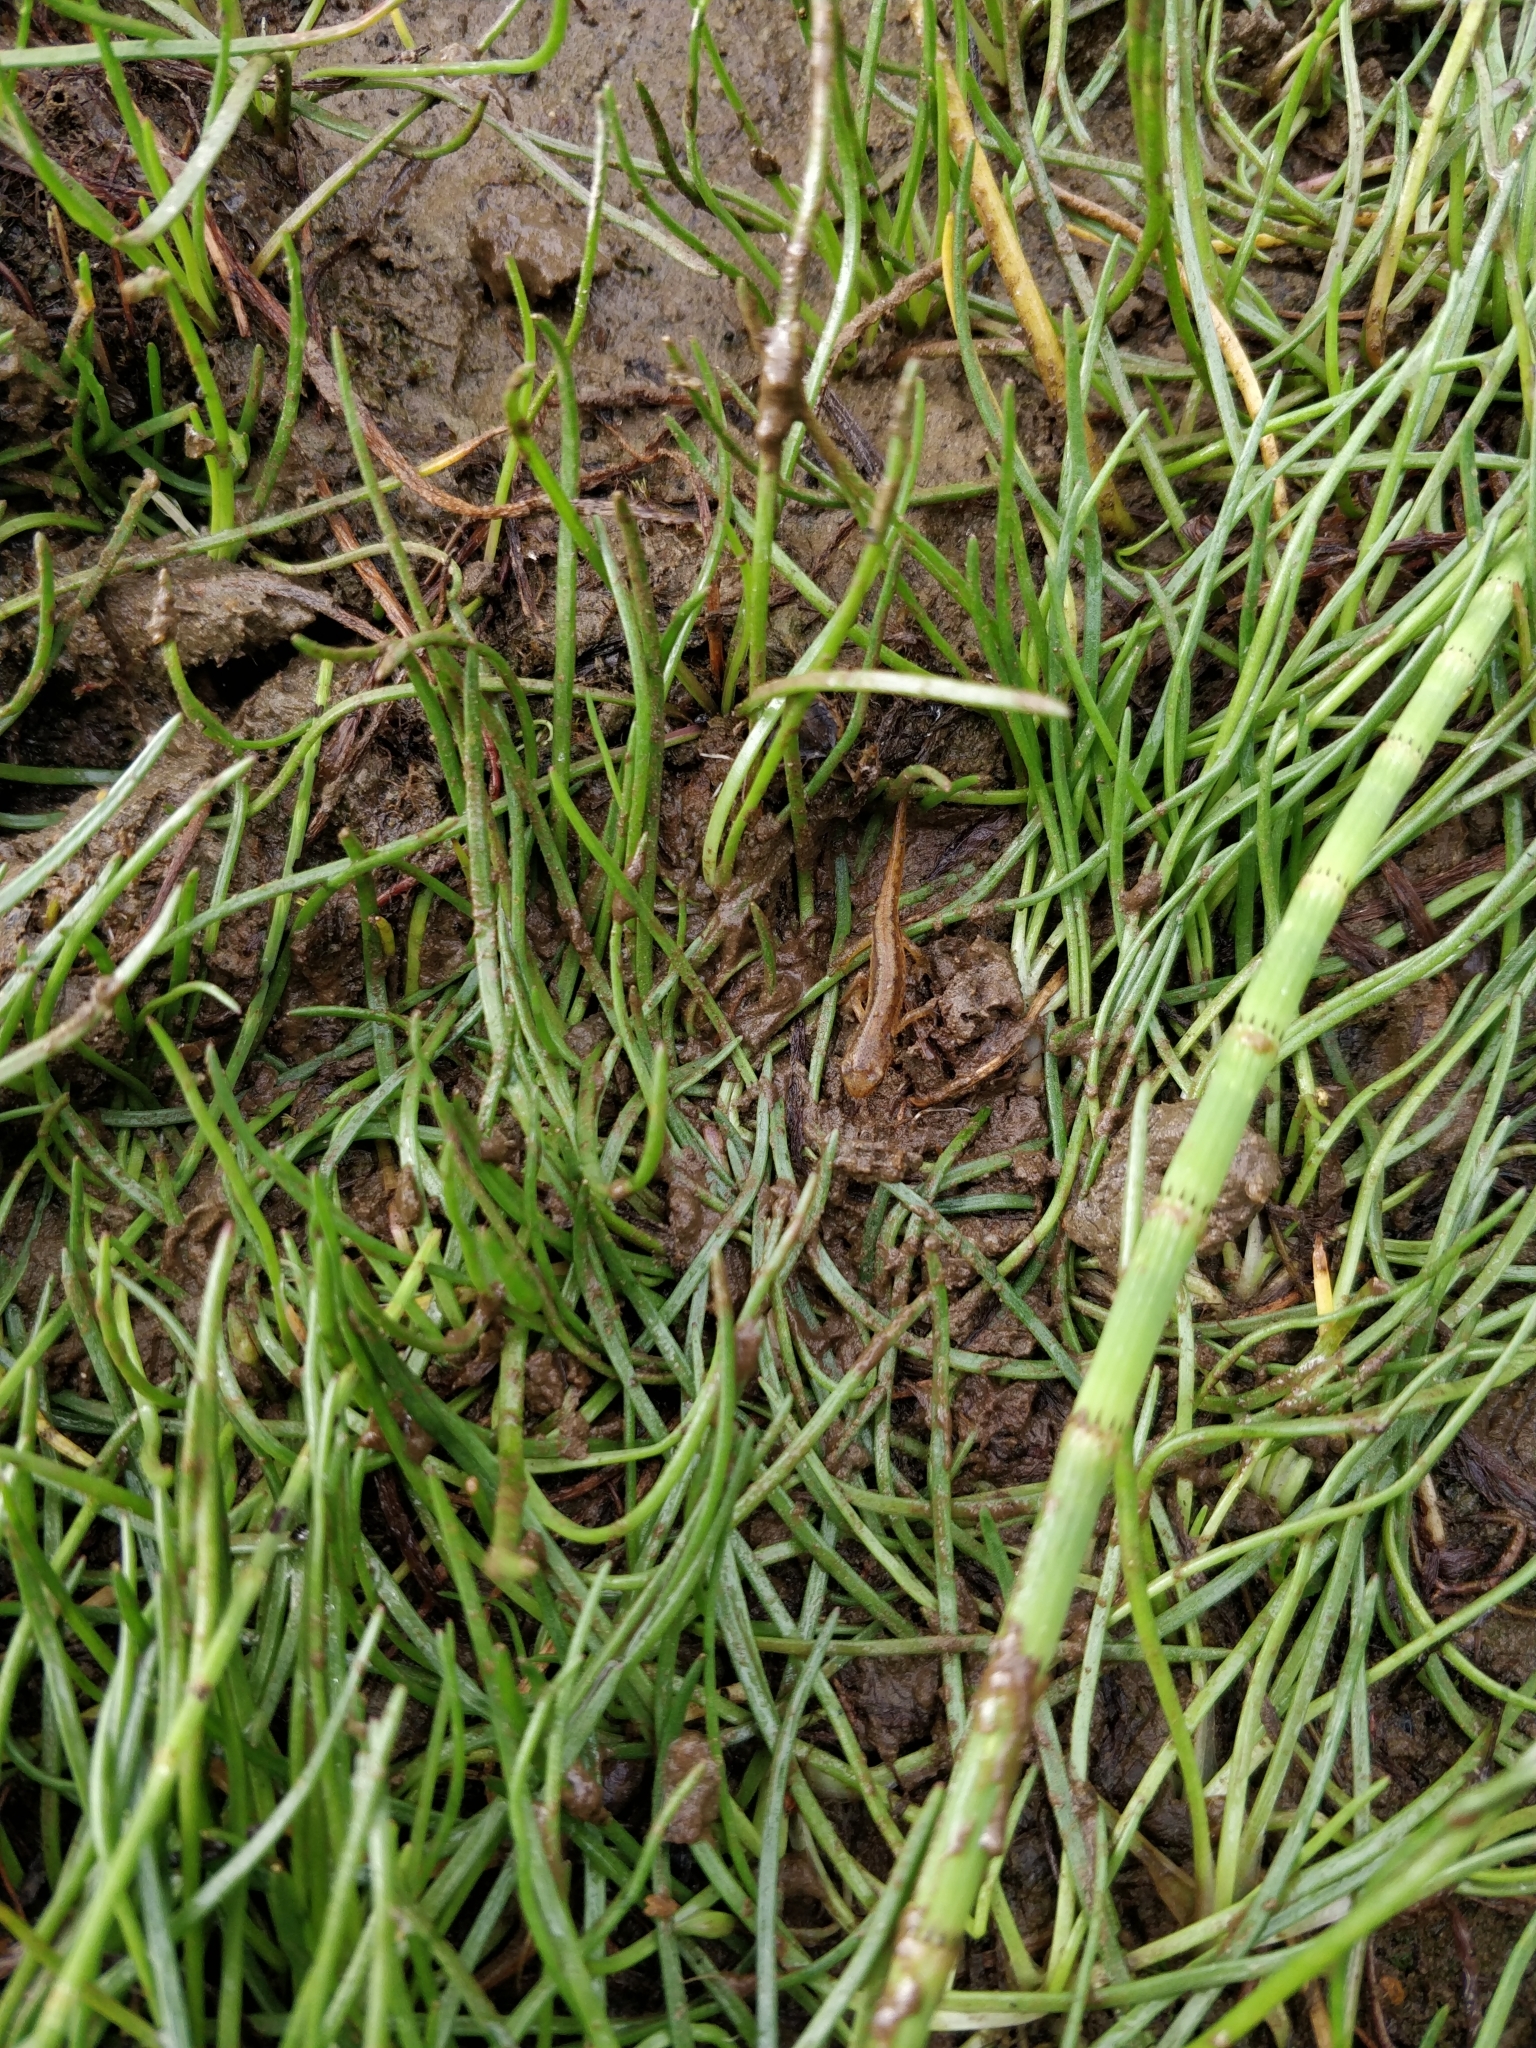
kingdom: Animalia
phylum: Chordata
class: Amphibia
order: Caudata
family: Salamandridae
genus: Lissotriton
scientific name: Lissotriton helveticus
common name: Palmate newt
